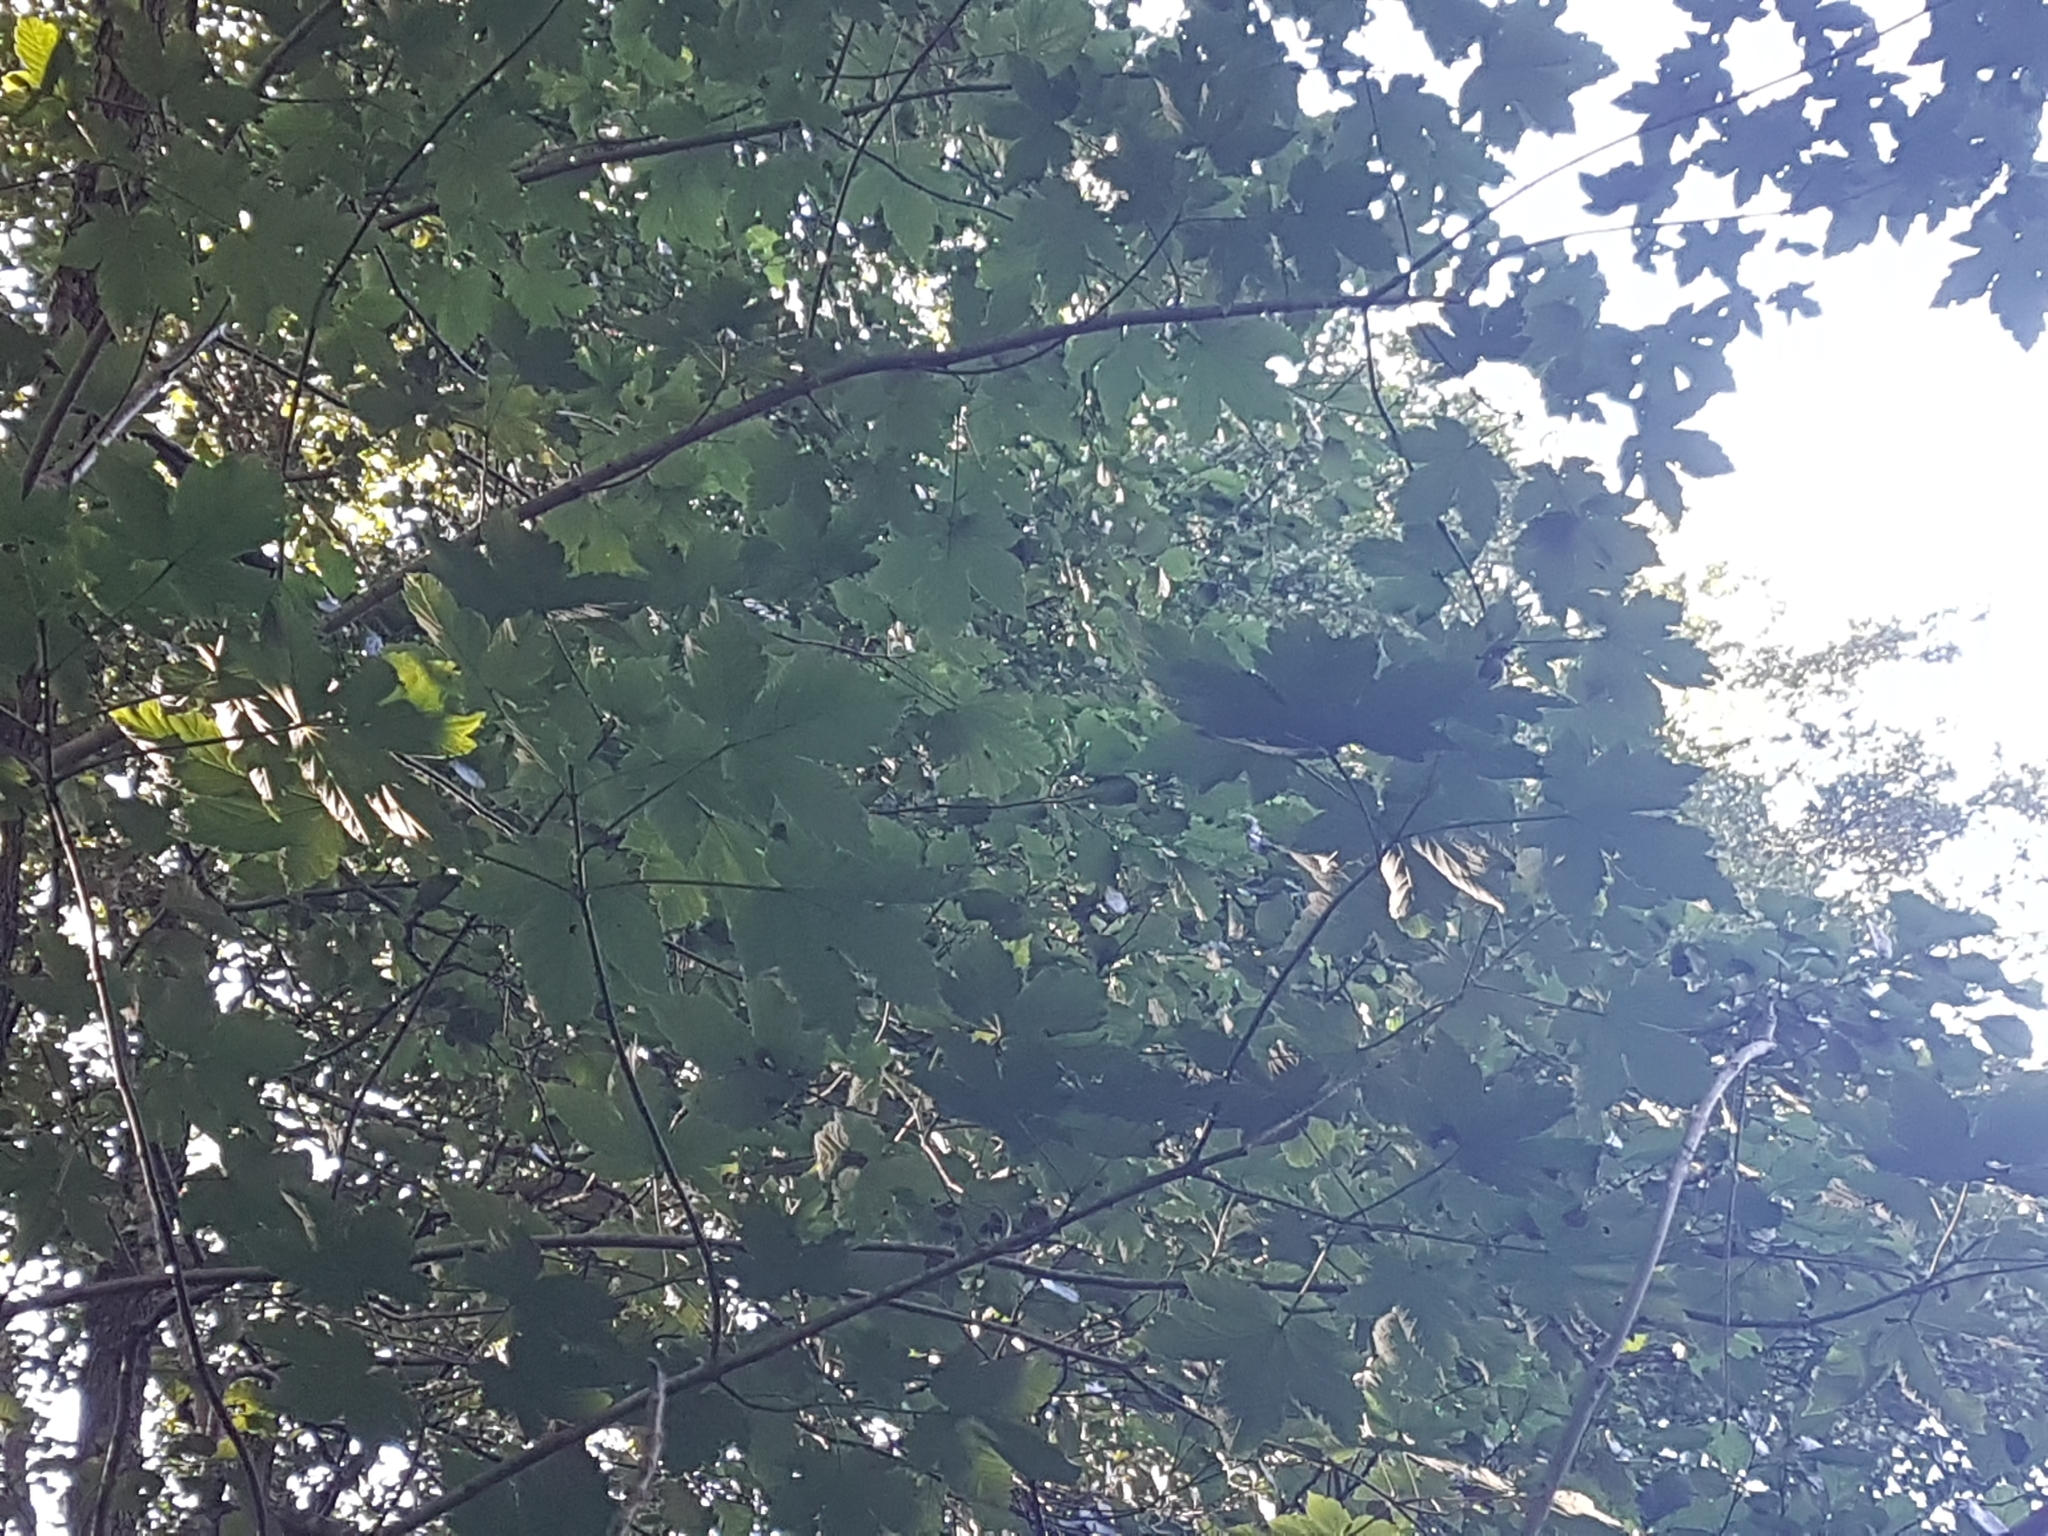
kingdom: Plantae
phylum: Tracheophyta
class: Magnoliopsida
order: Sapindales
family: Sapindaceae
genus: Acer
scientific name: Acer pseudoplatanus
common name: Sycamore
